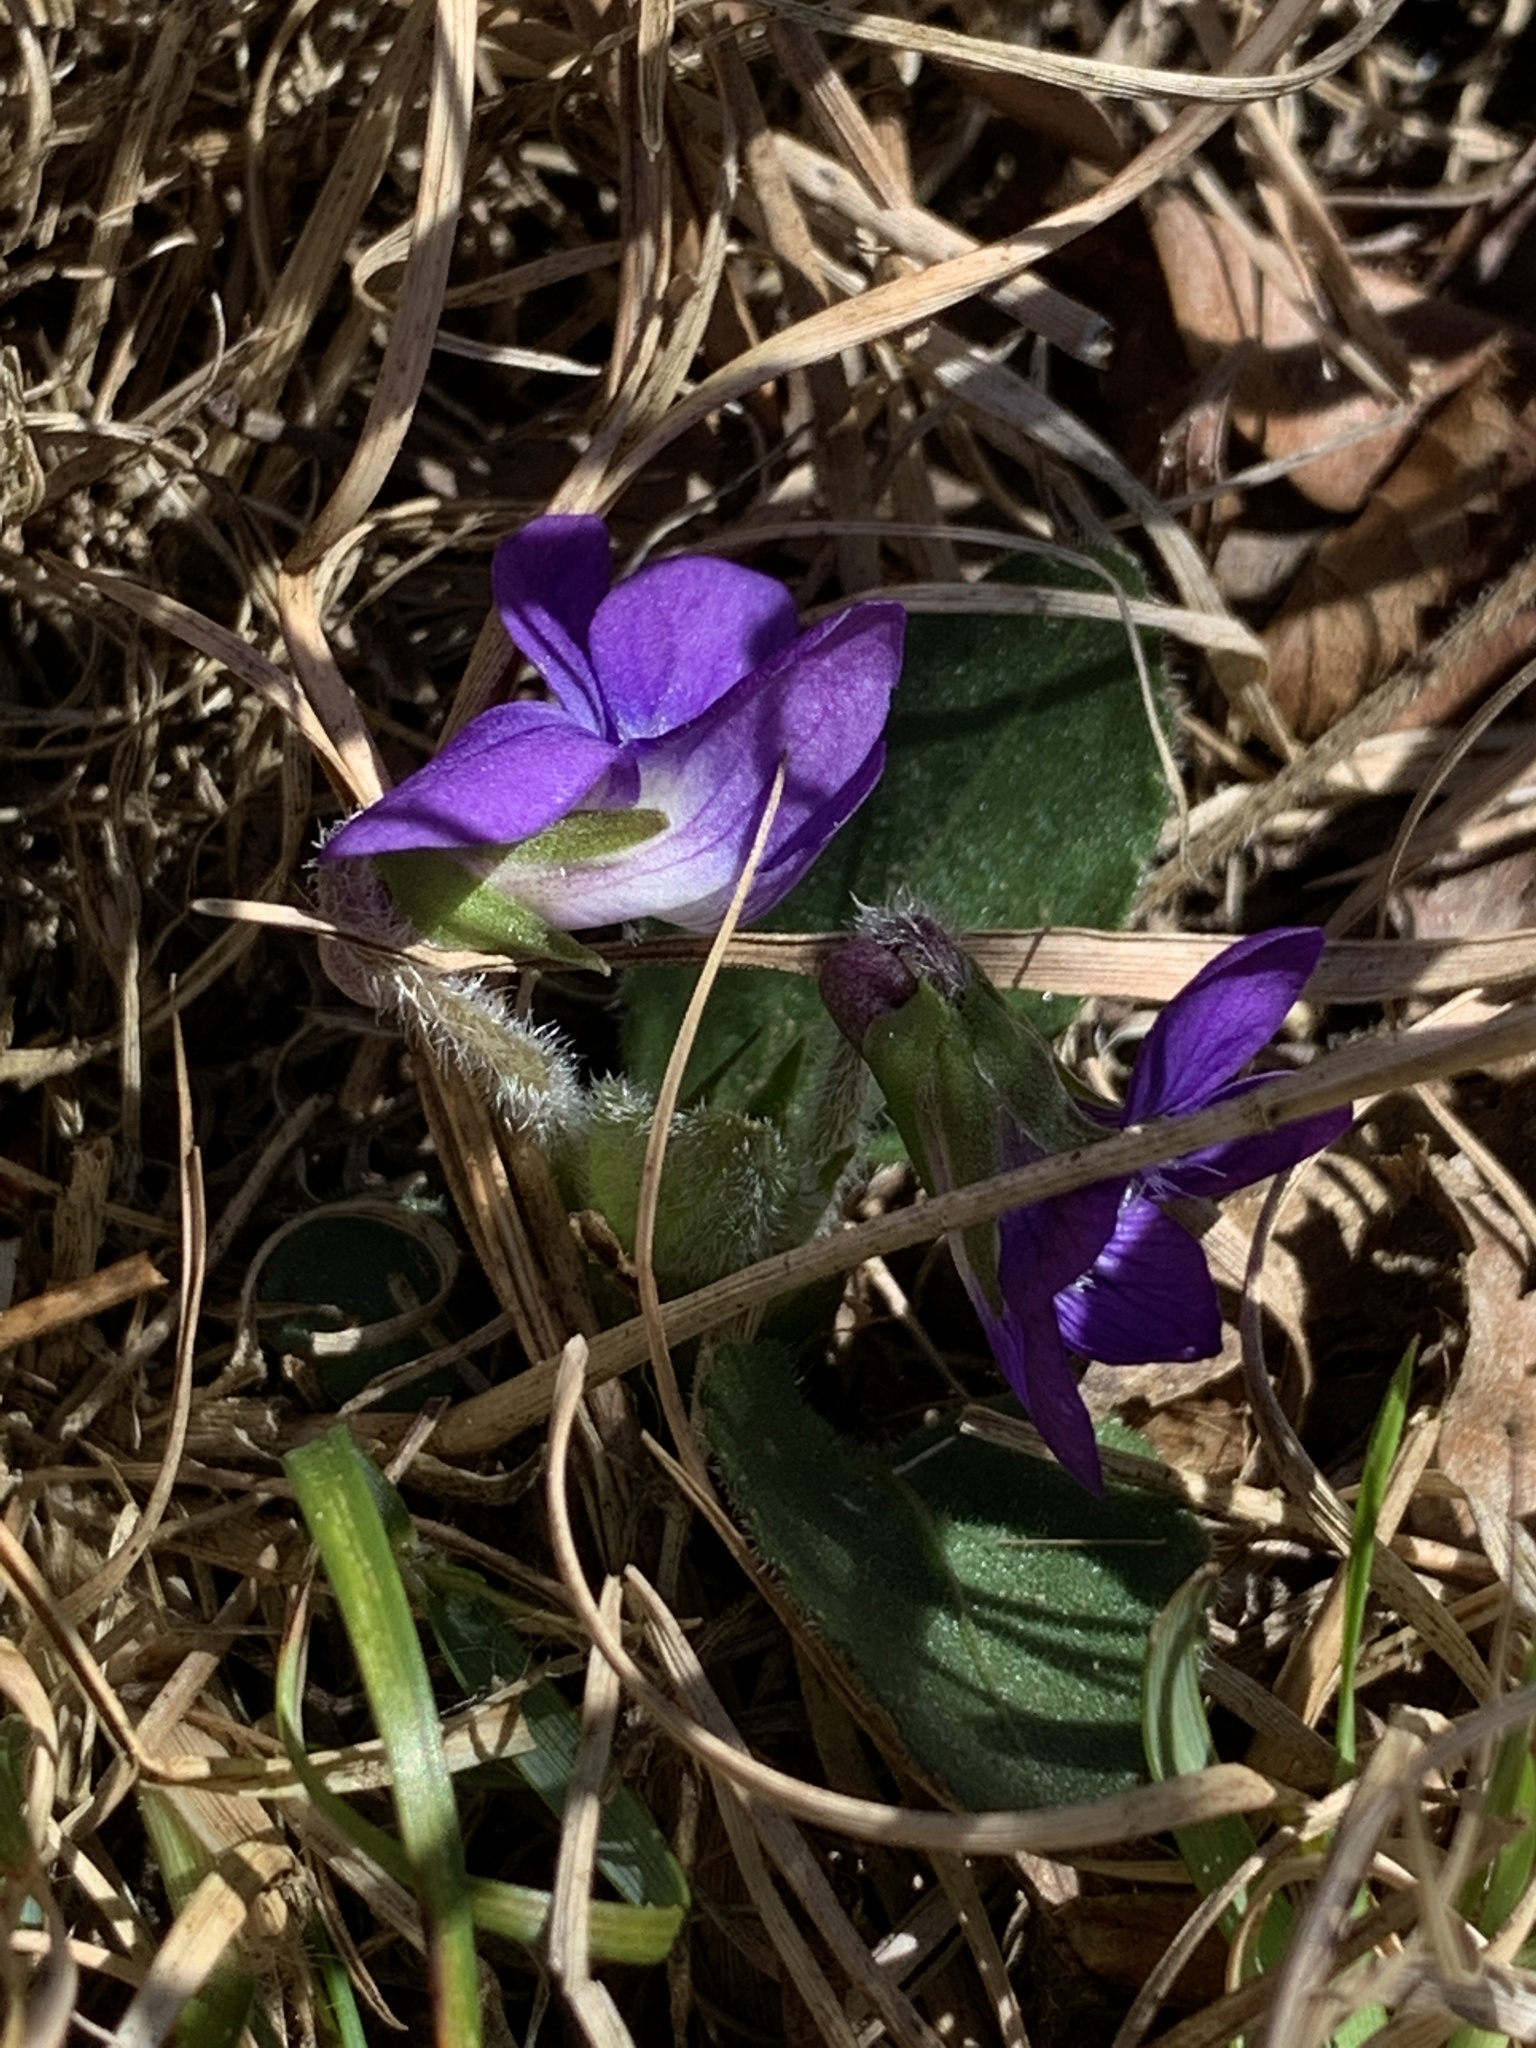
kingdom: Plantae
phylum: Tracheophyta
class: Magnoliopsida
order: Malpighiales
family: Violaceae
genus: Viola
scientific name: Viola sagittata
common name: Arrowhead violet
